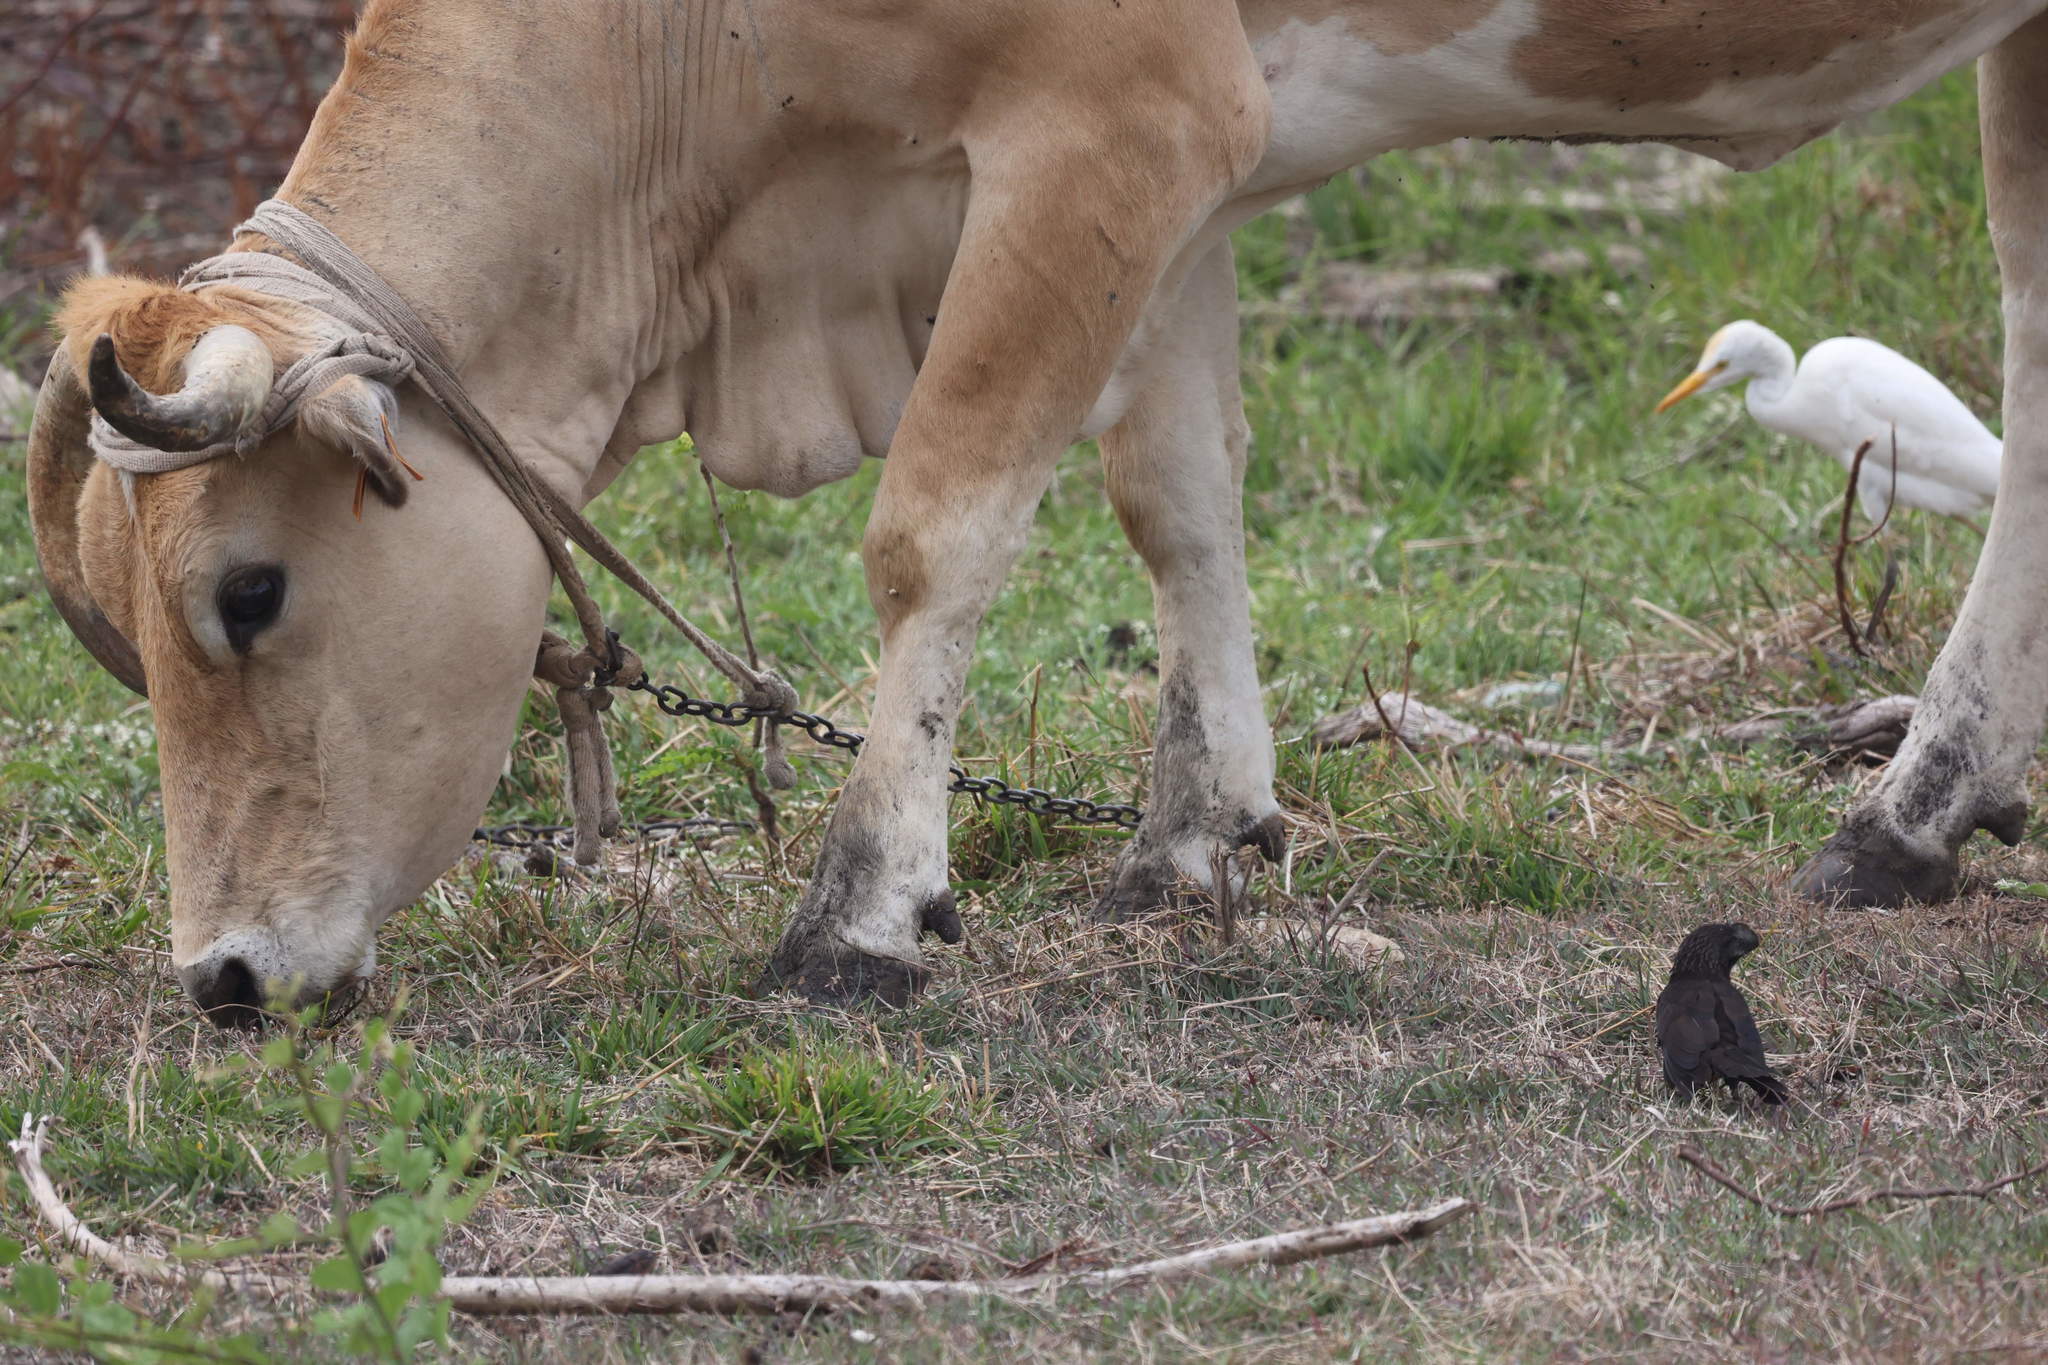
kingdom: Animalia
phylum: Chordata
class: Aves
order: Pelecaniformes
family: Ardeidae
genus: Bubulcus
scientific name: Bubulcus ibis
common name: Cattle egret
